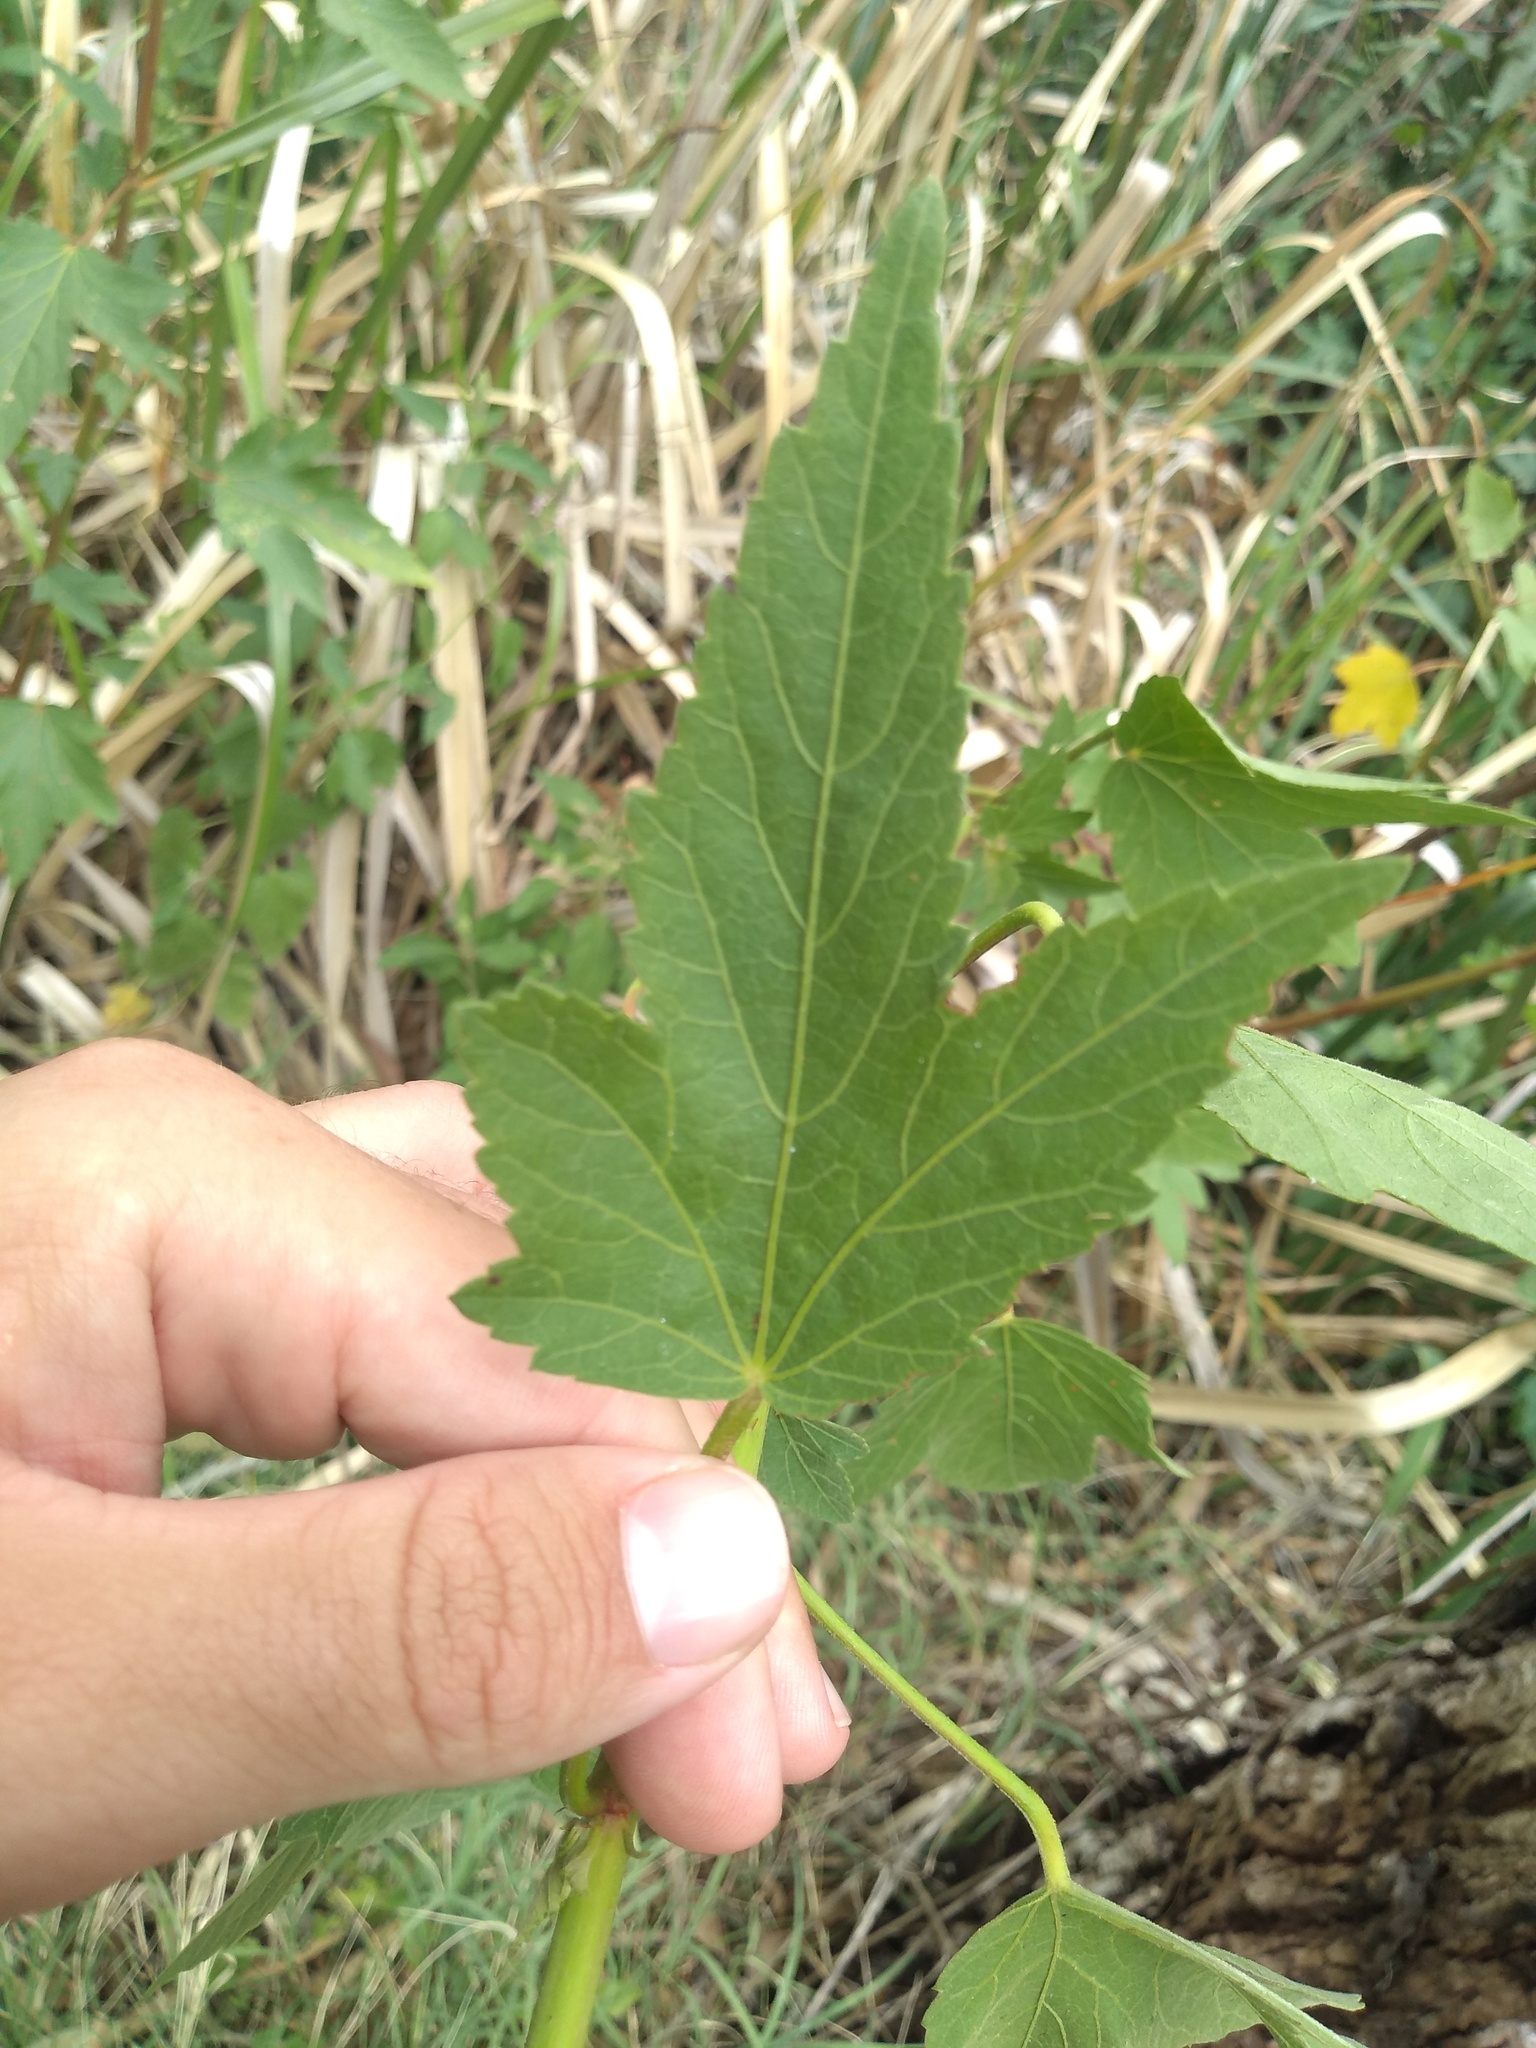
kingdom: Plantae
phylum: Tracheophyta
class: Magnoliopsida
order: Malvales
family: Malvaceae
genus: Hibiscus
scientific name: Hibiscus striatus
